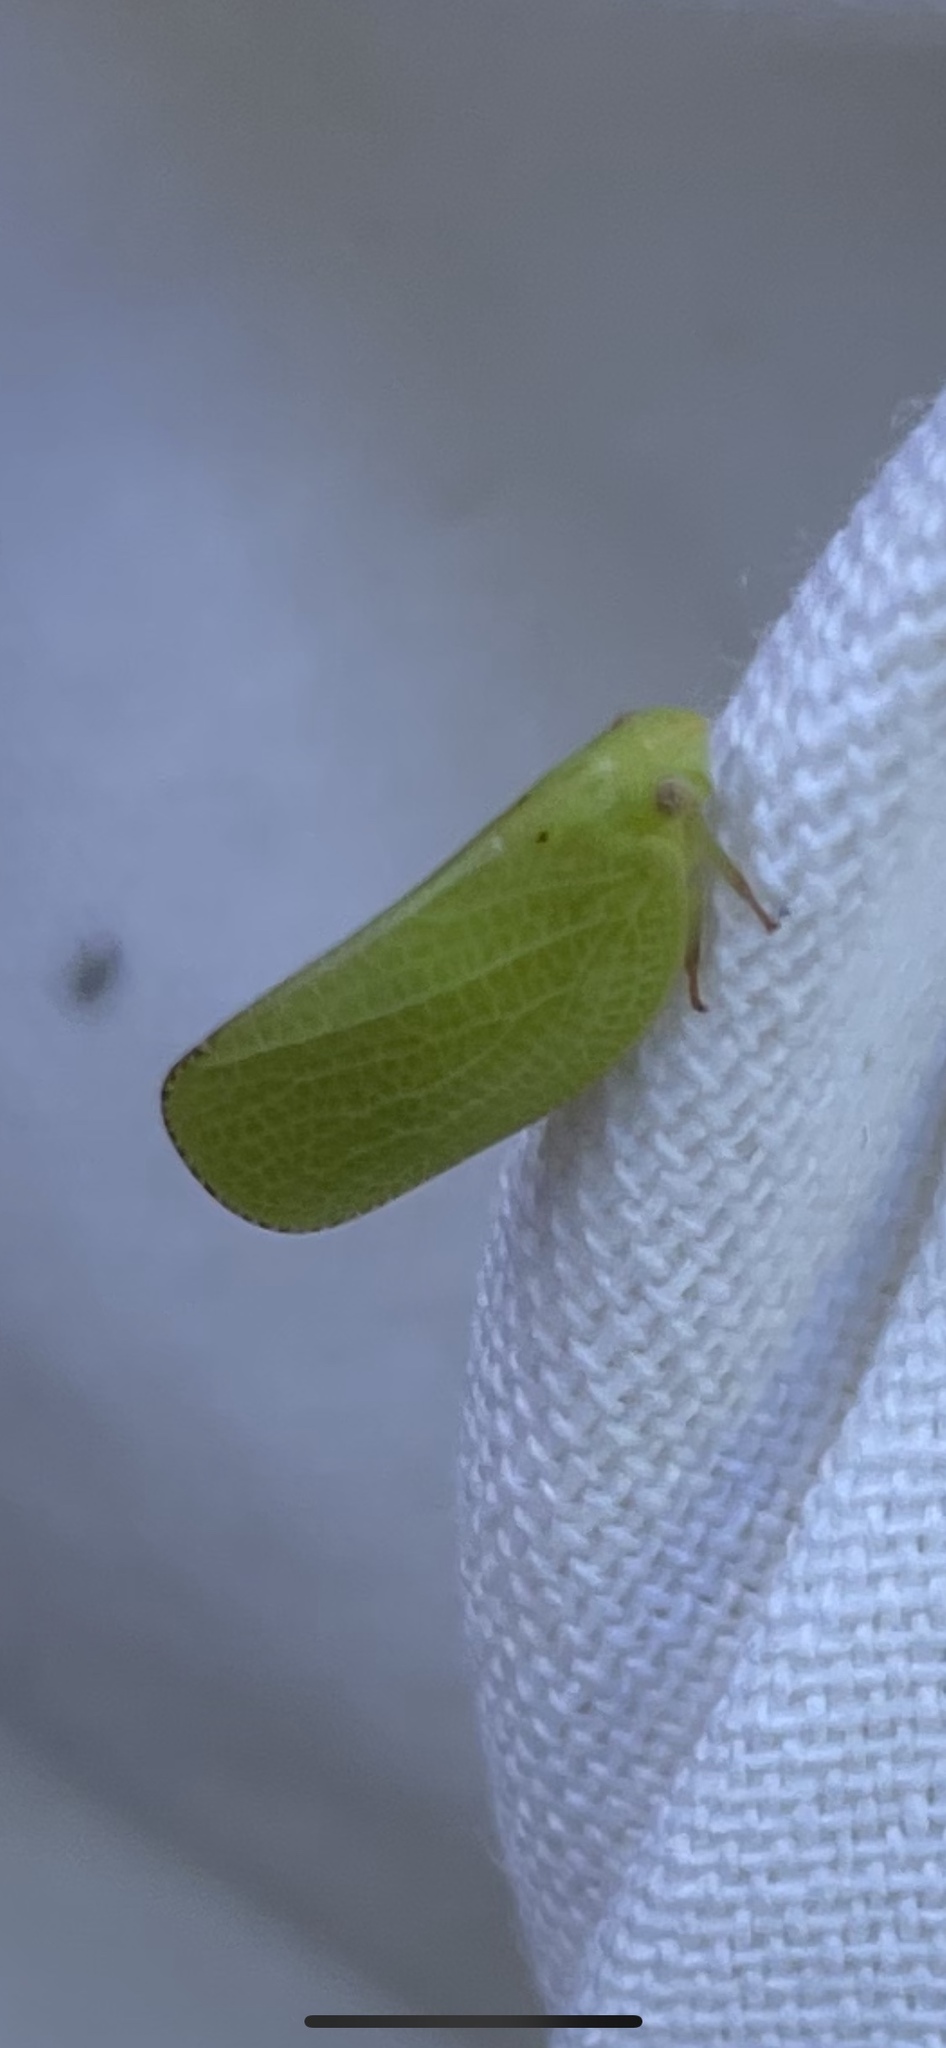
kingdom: Animalia
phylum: Arthropoda
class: Insecta
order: Hemiptera
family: Acanaloniidae
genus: Acanalonia
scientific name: Acanalonia conica
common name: Green cone-headed planthopper
